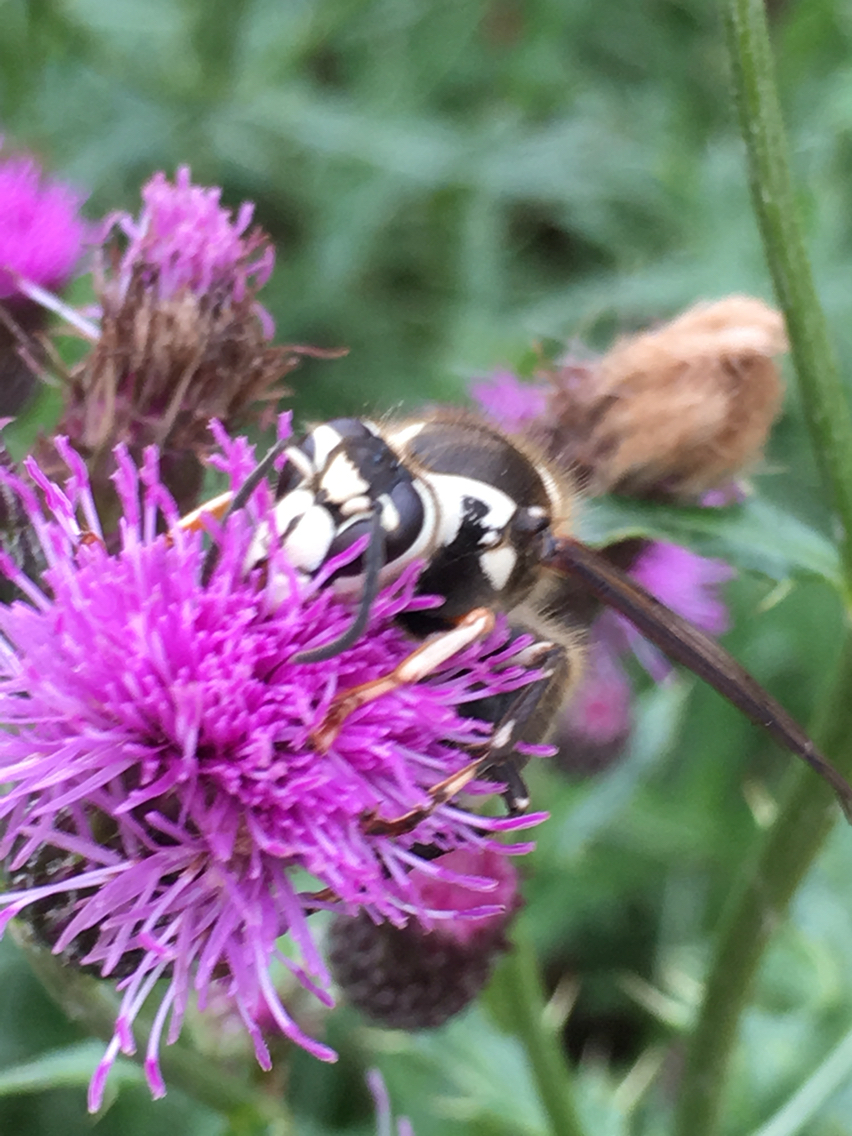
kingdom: Animalia
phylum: Arthropoda
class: Insecta
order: Hymenoptera
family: Vespidae
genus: Dolichovespula
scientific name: Dolichovespula maculata
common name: Bald-faced hornet
